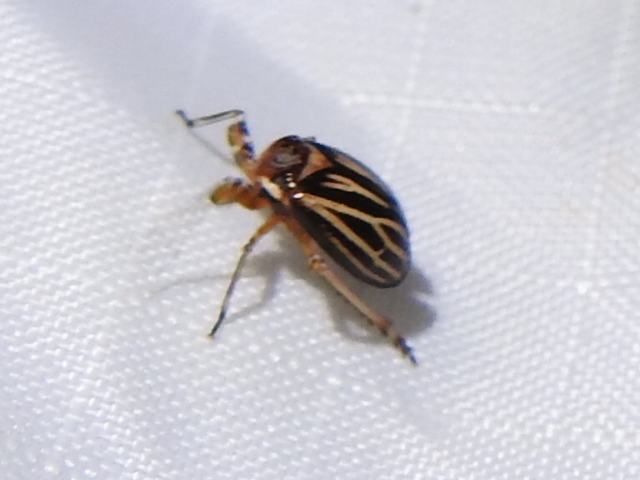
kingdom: Animalia
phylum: Arthropoda
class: Insecta
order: Hemiptera
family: Achilidae
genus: Isodaemon
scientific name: Isodaemon orontes
